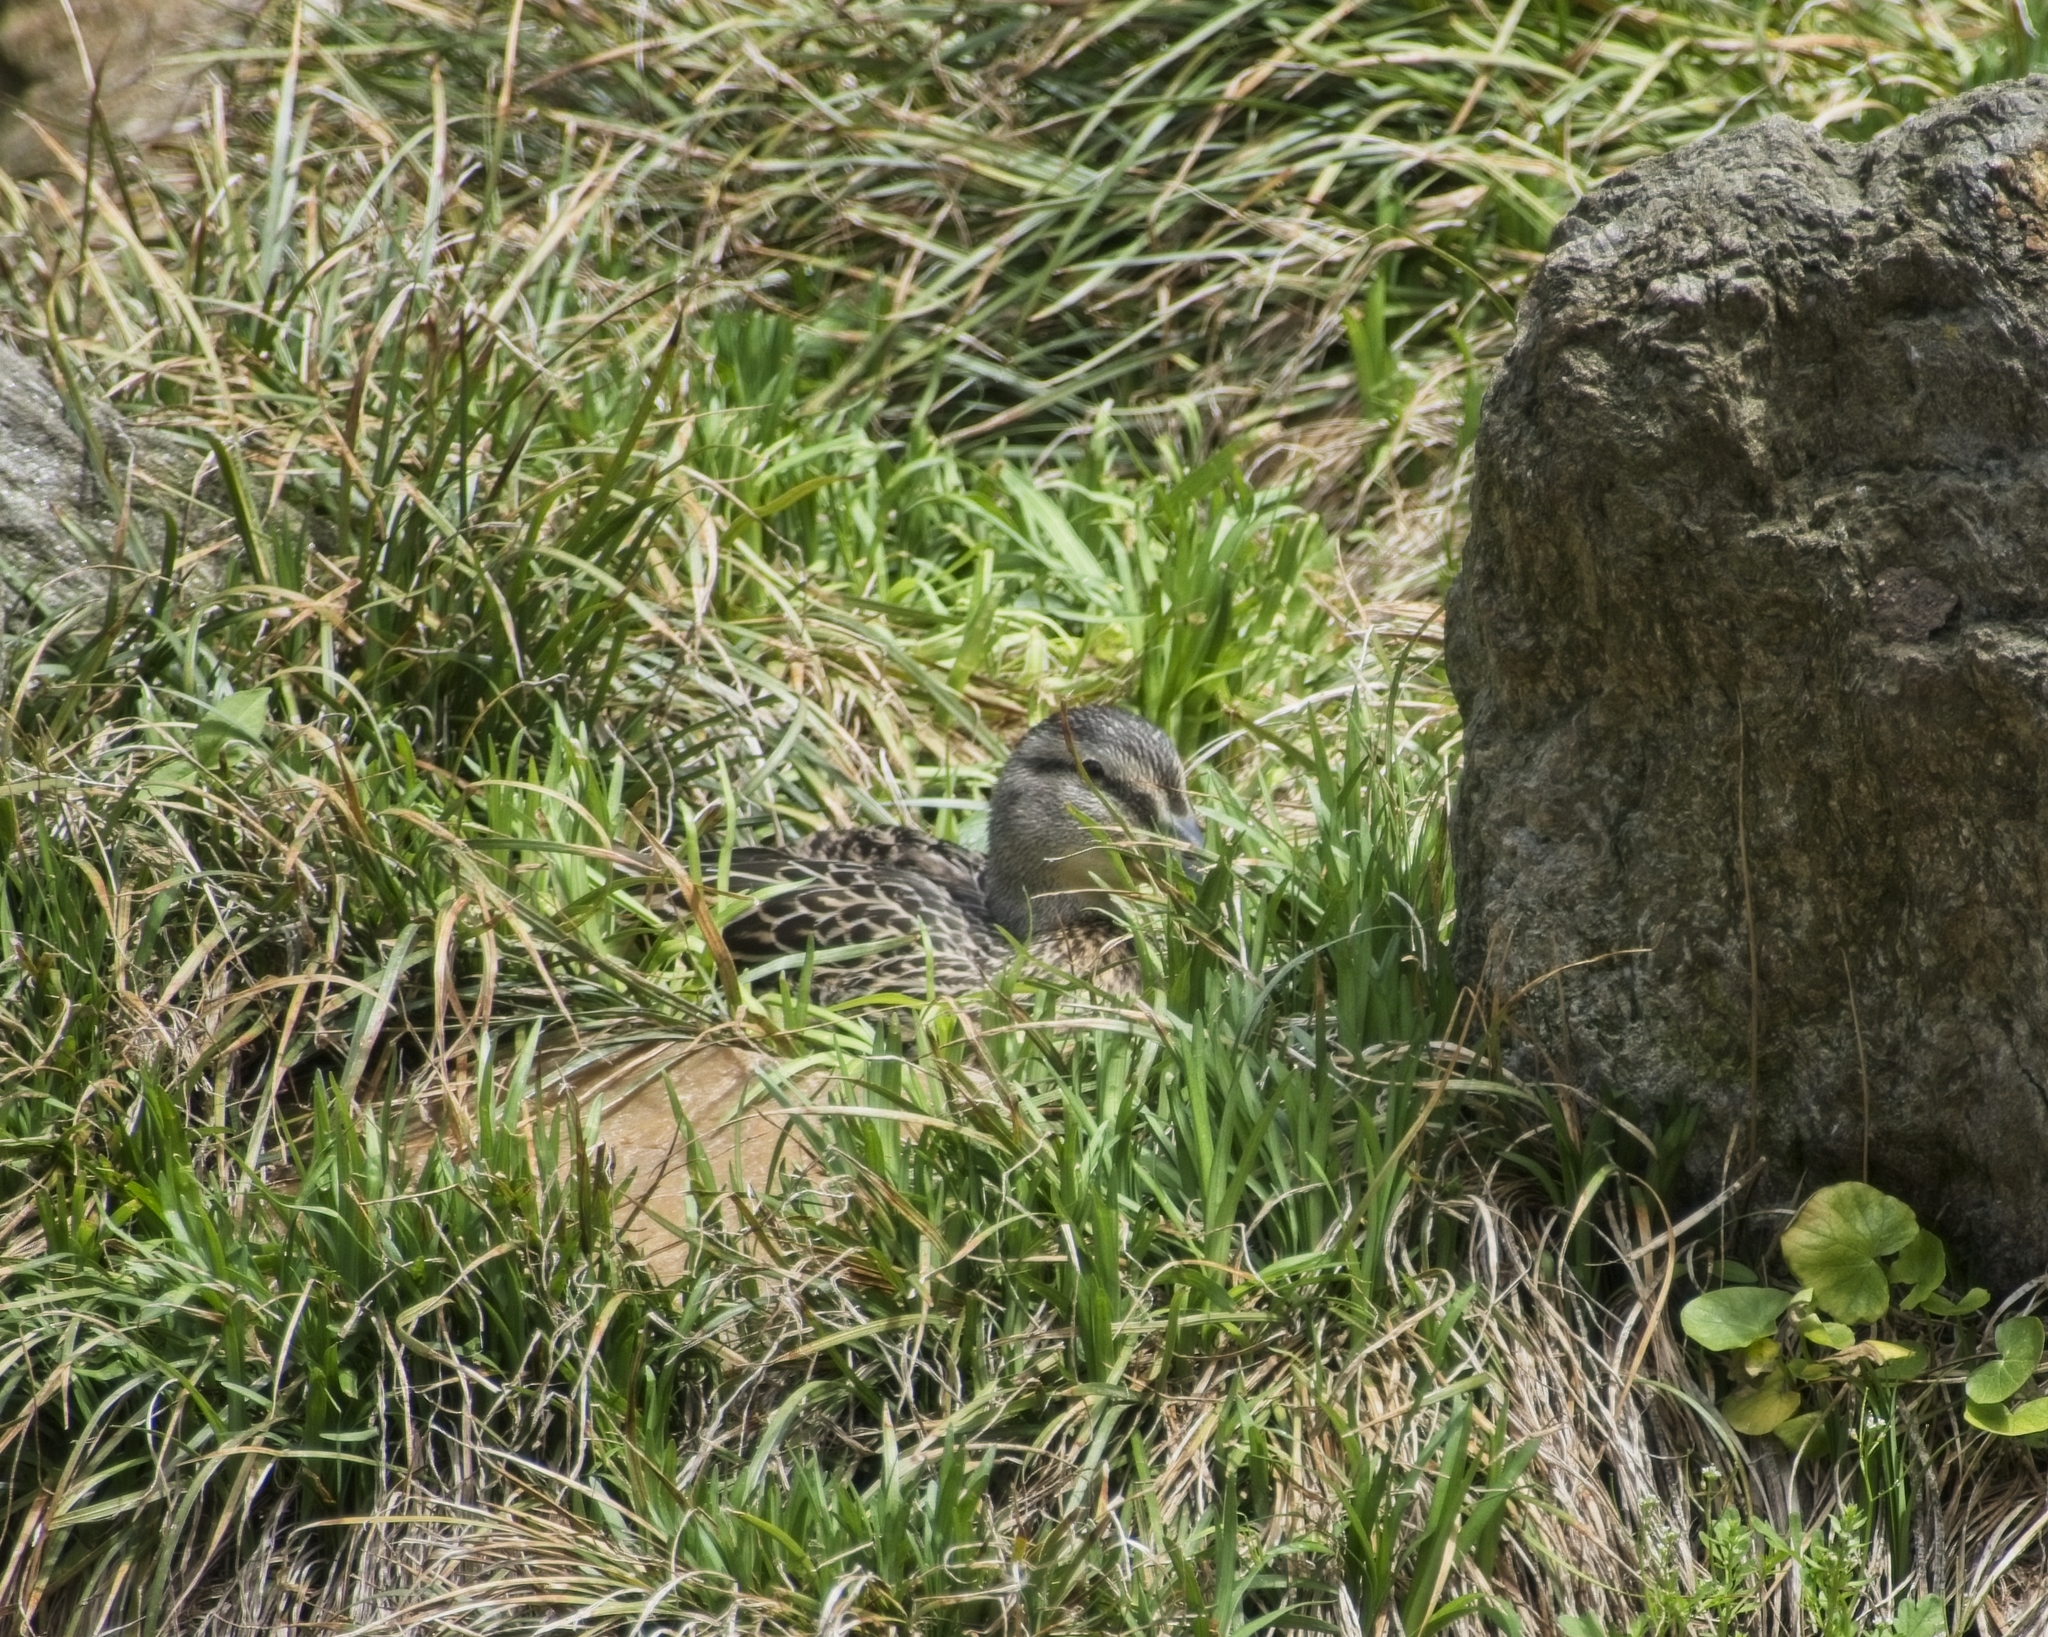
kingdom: Animalia
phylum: Chordata
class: Aves
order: Anseriformes
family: Anatidae
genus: Anas
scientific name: Anas platyrhynchos
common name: Mallard
